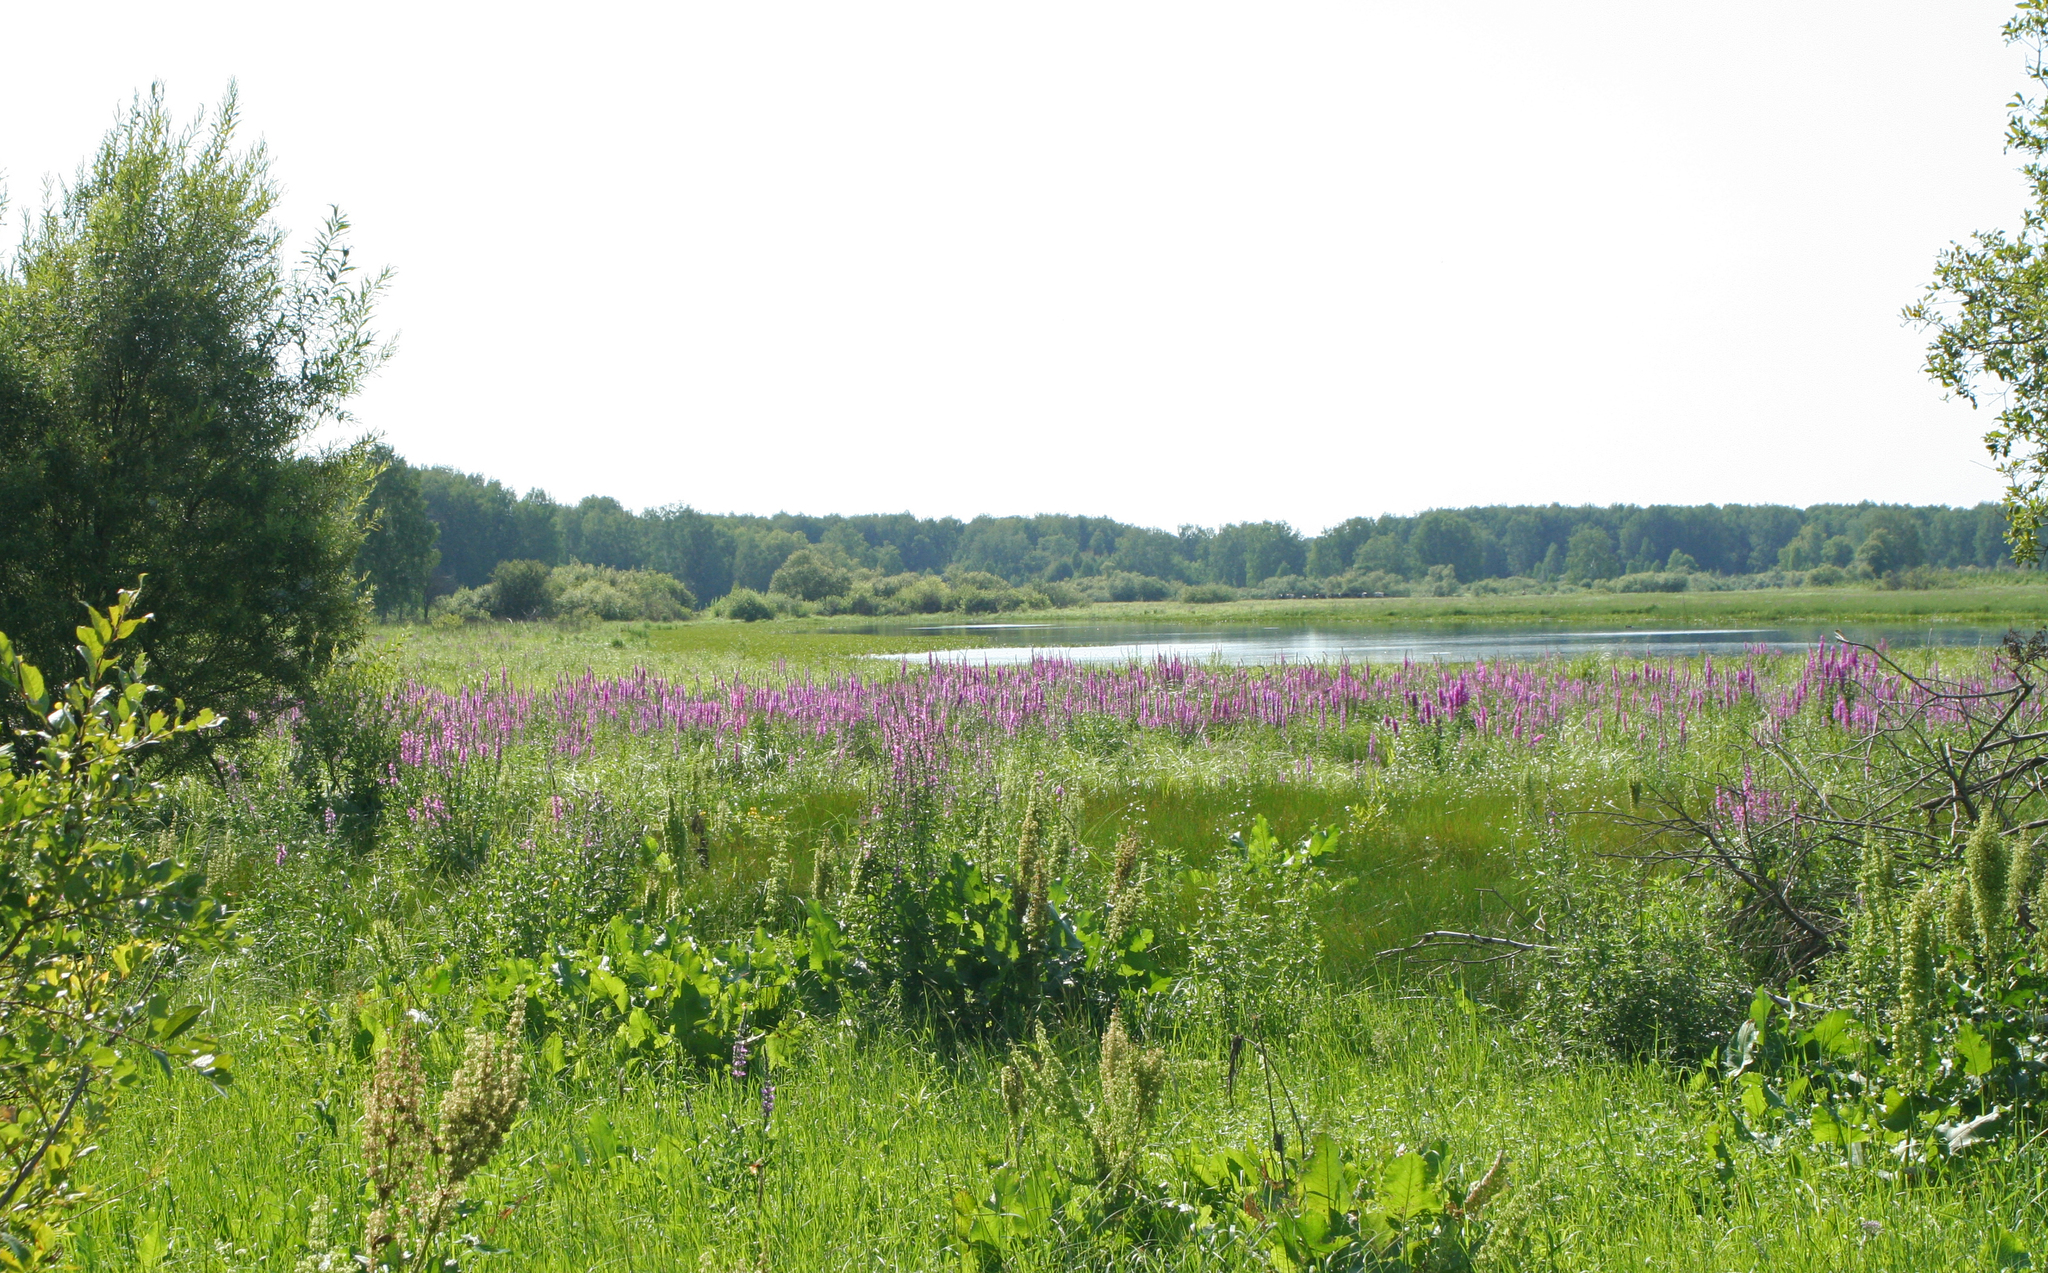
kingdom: Plantae
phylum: Tracheophyta
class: Magnoliopsida
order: Myrtales
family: Lythraceae
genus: Lythrum
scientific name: Lythrum salicaria
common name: Purple loosestrife
